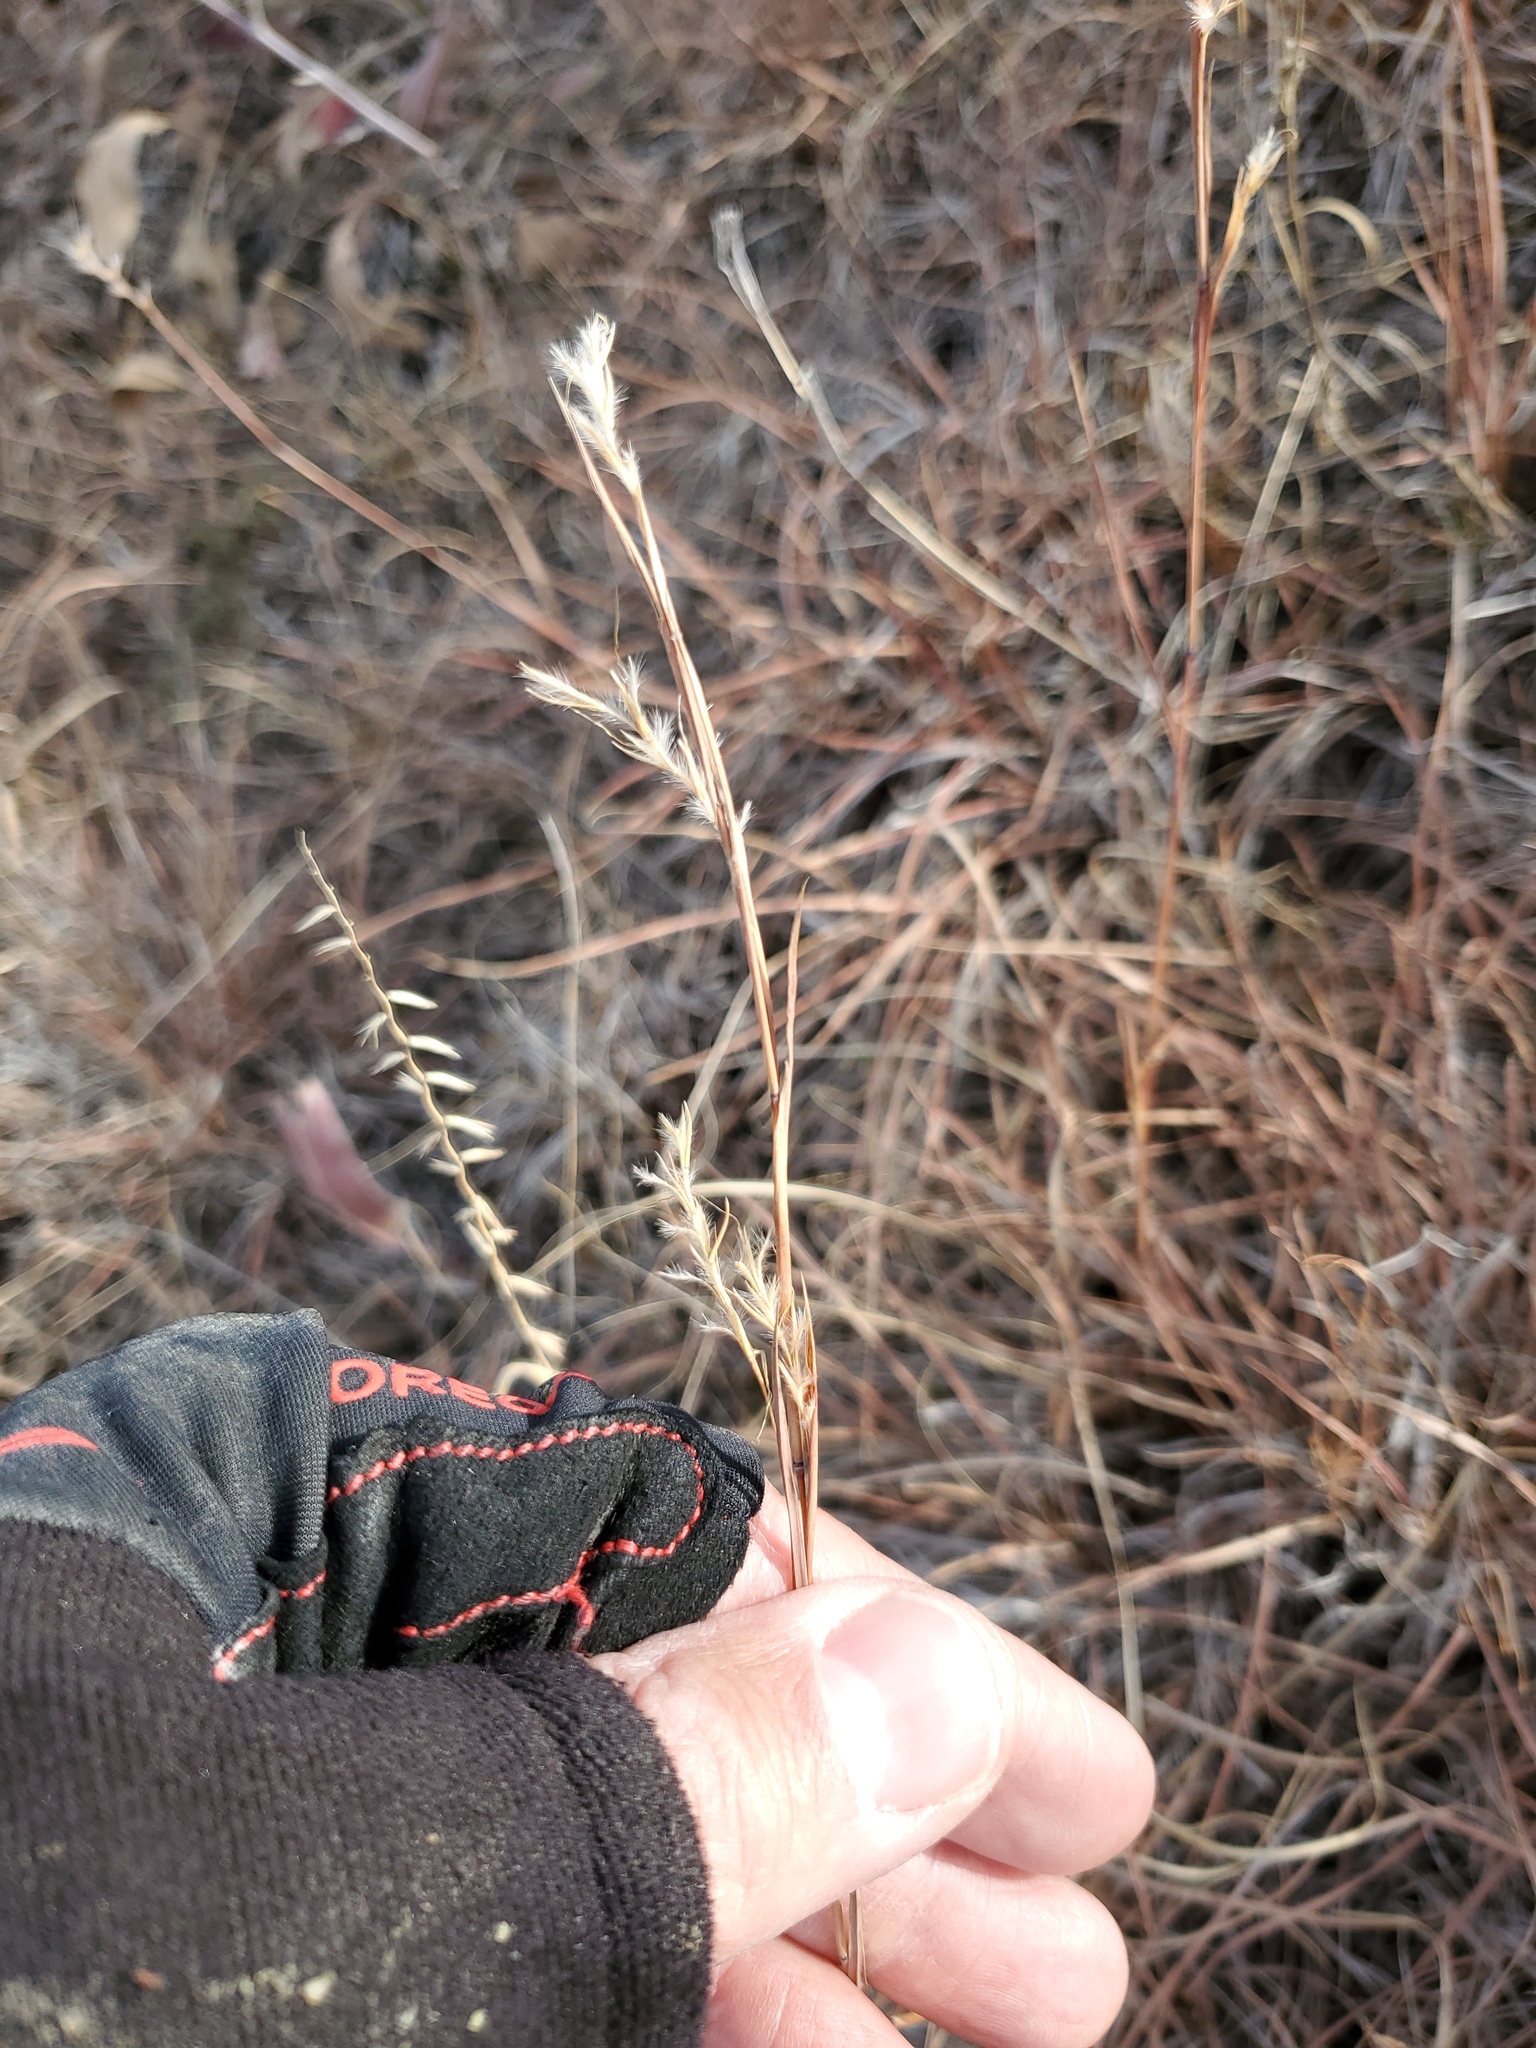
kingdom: Plantae
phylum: Tracheophyta
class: Liliopsida
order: Poales
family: Poaceae
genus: Schizachyrium
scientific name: Schizachyrium scoparium
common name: Little bluestem
